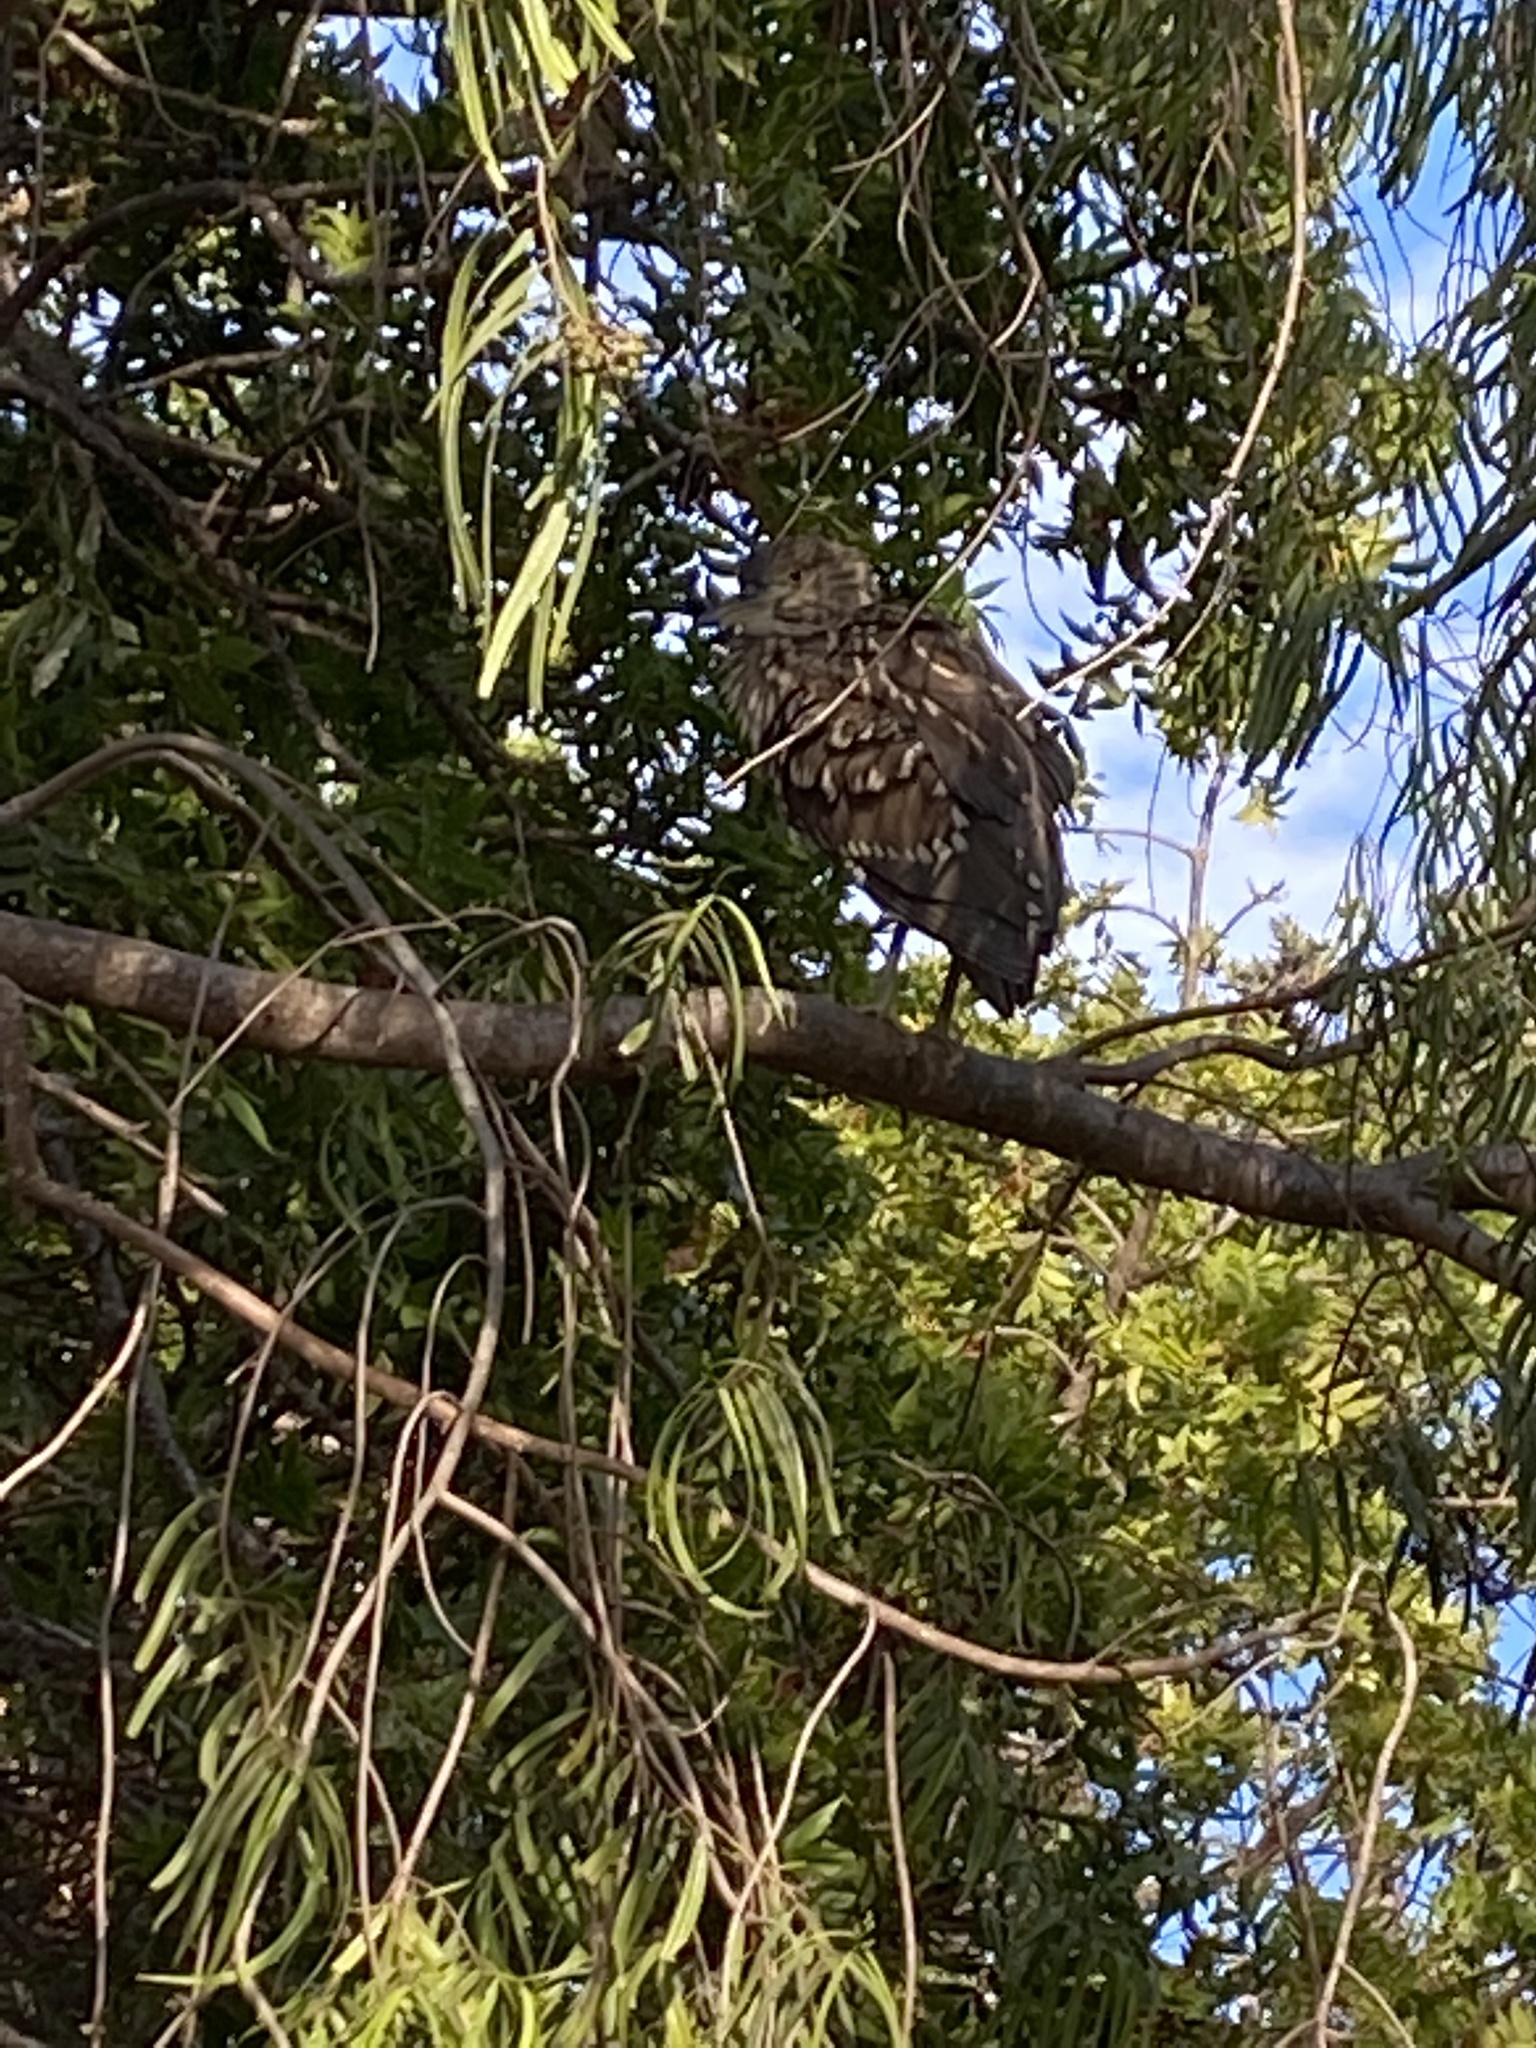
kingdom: Animalia
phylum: Chordata
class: Aves
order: Pelecaniformes
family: Ardeidae
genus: Nycticorax
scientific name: Nycticorax nycticorax
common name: Black-crowned night heron
